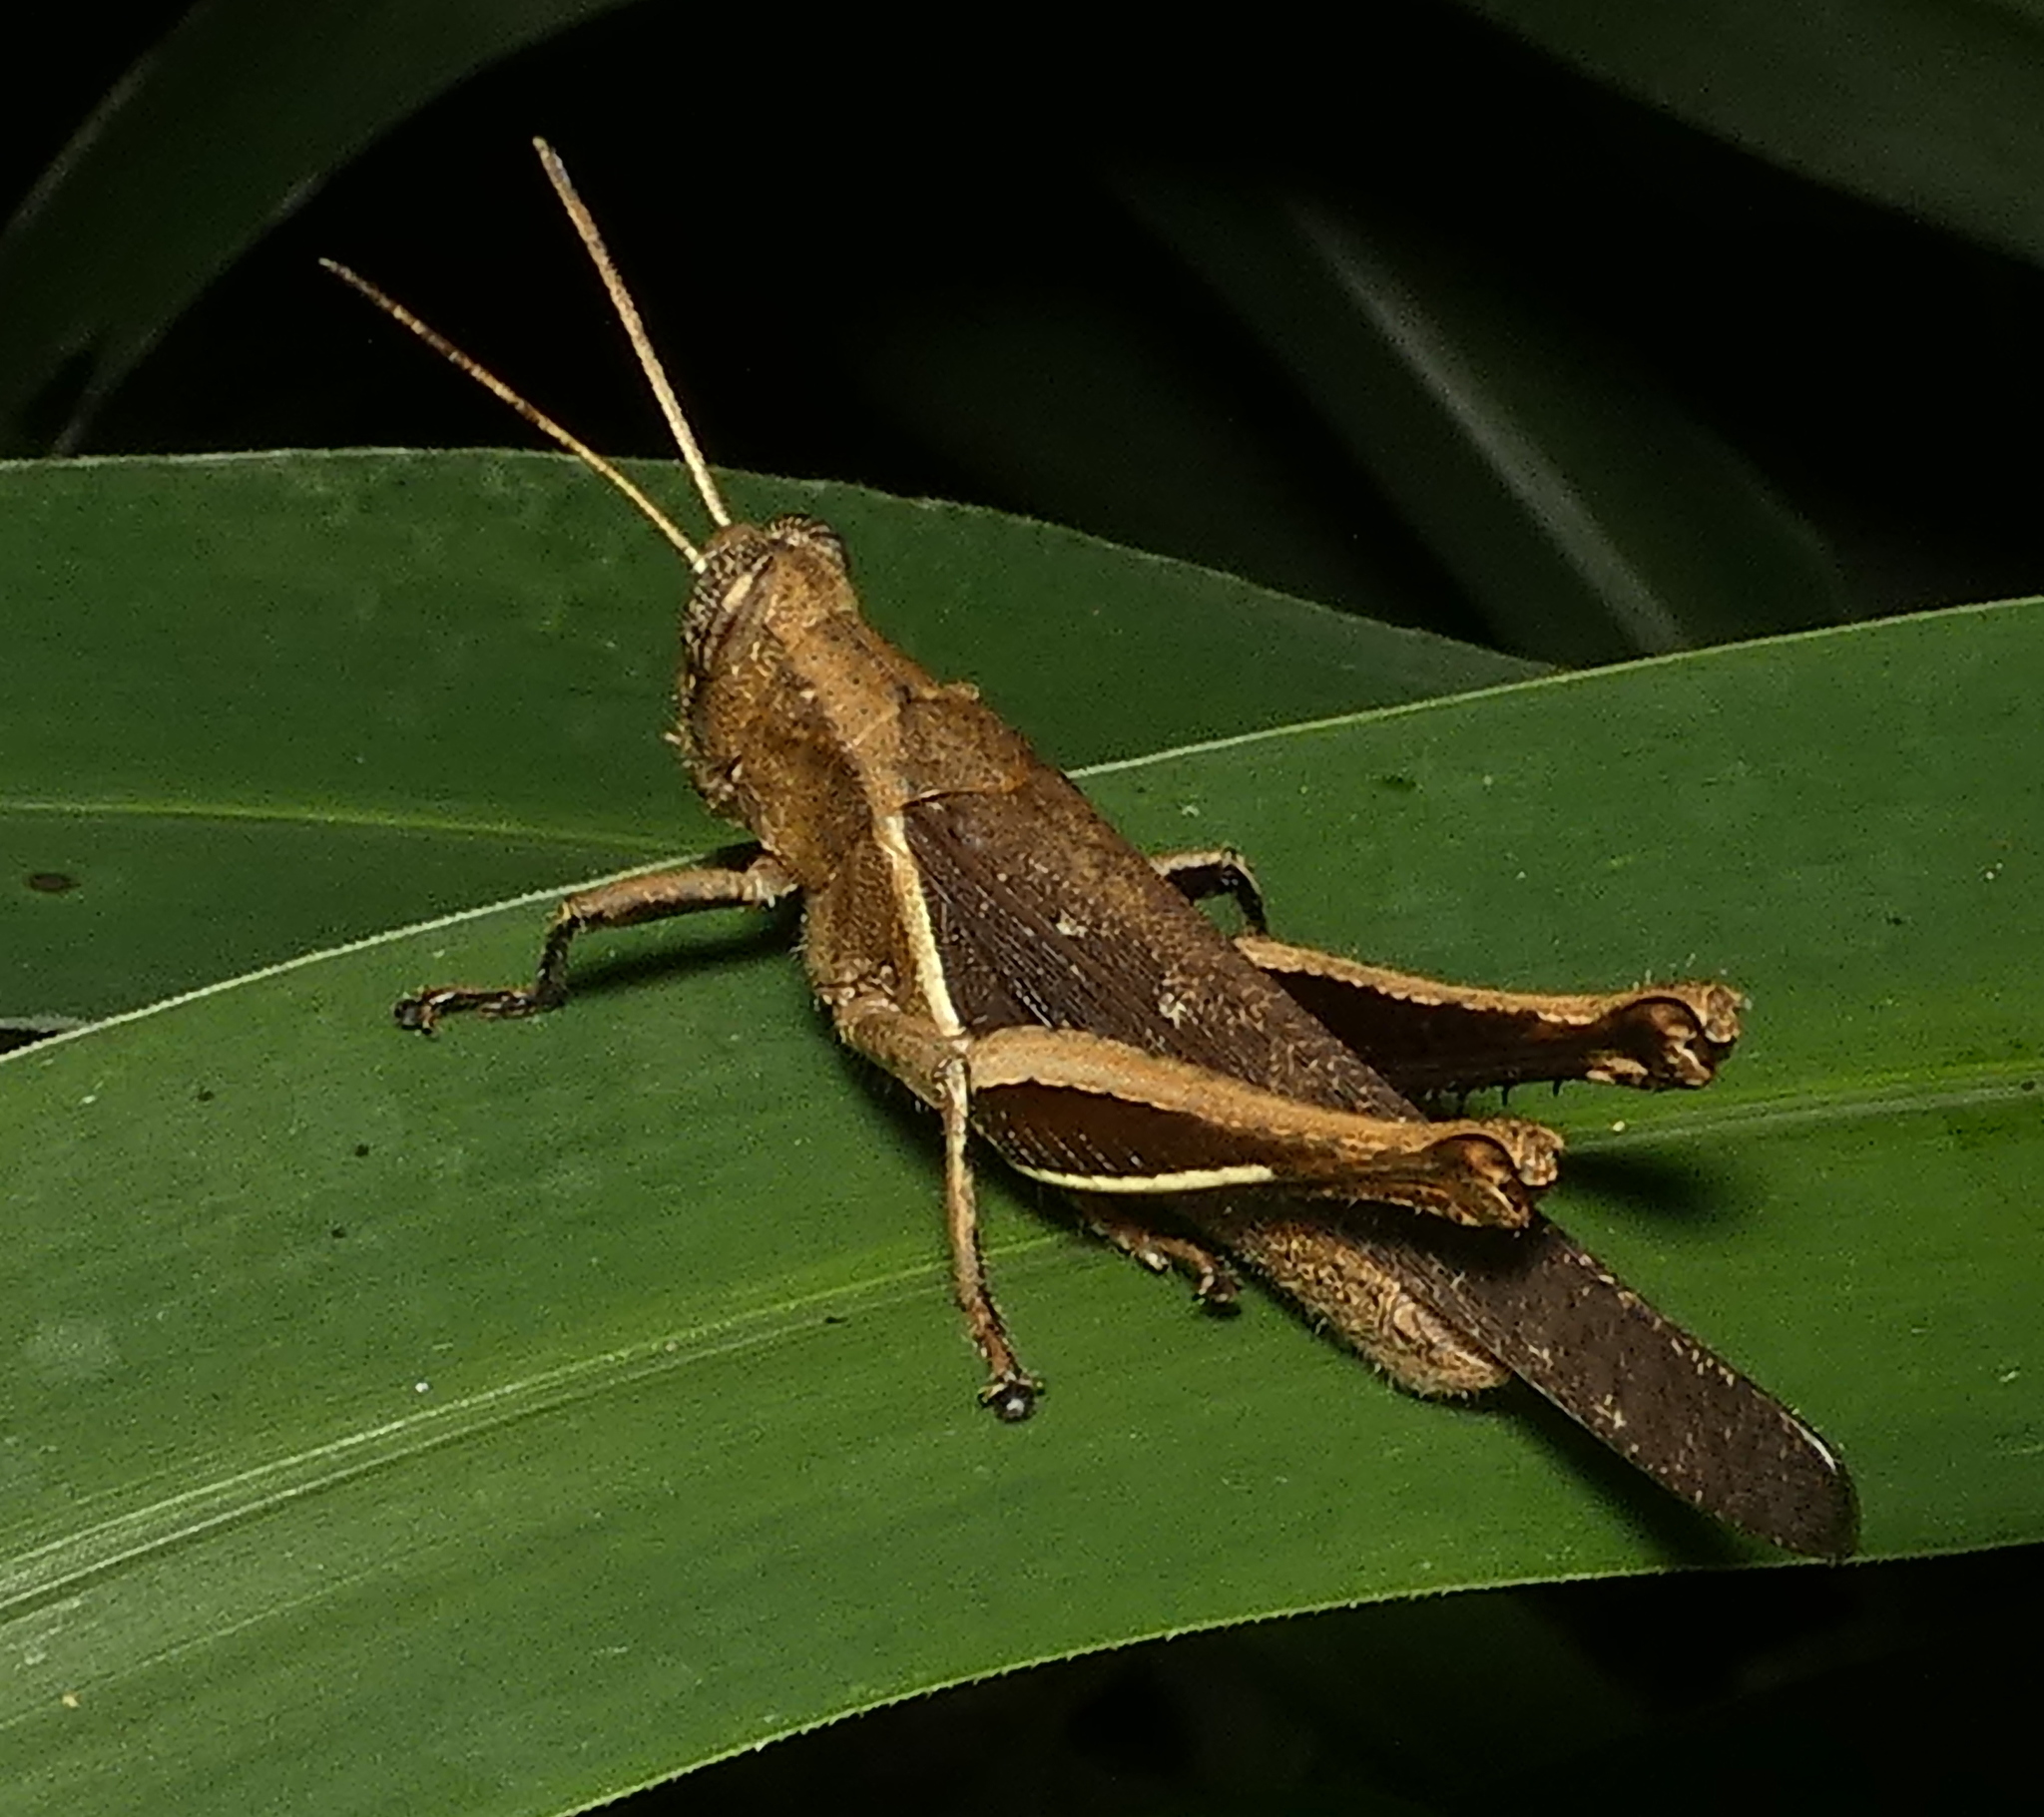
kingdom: Animalia
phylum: Arthropoda
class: Insecta
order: Orthoptera
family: Acrididae
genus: Abracris
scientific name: Abracris flavolineata
